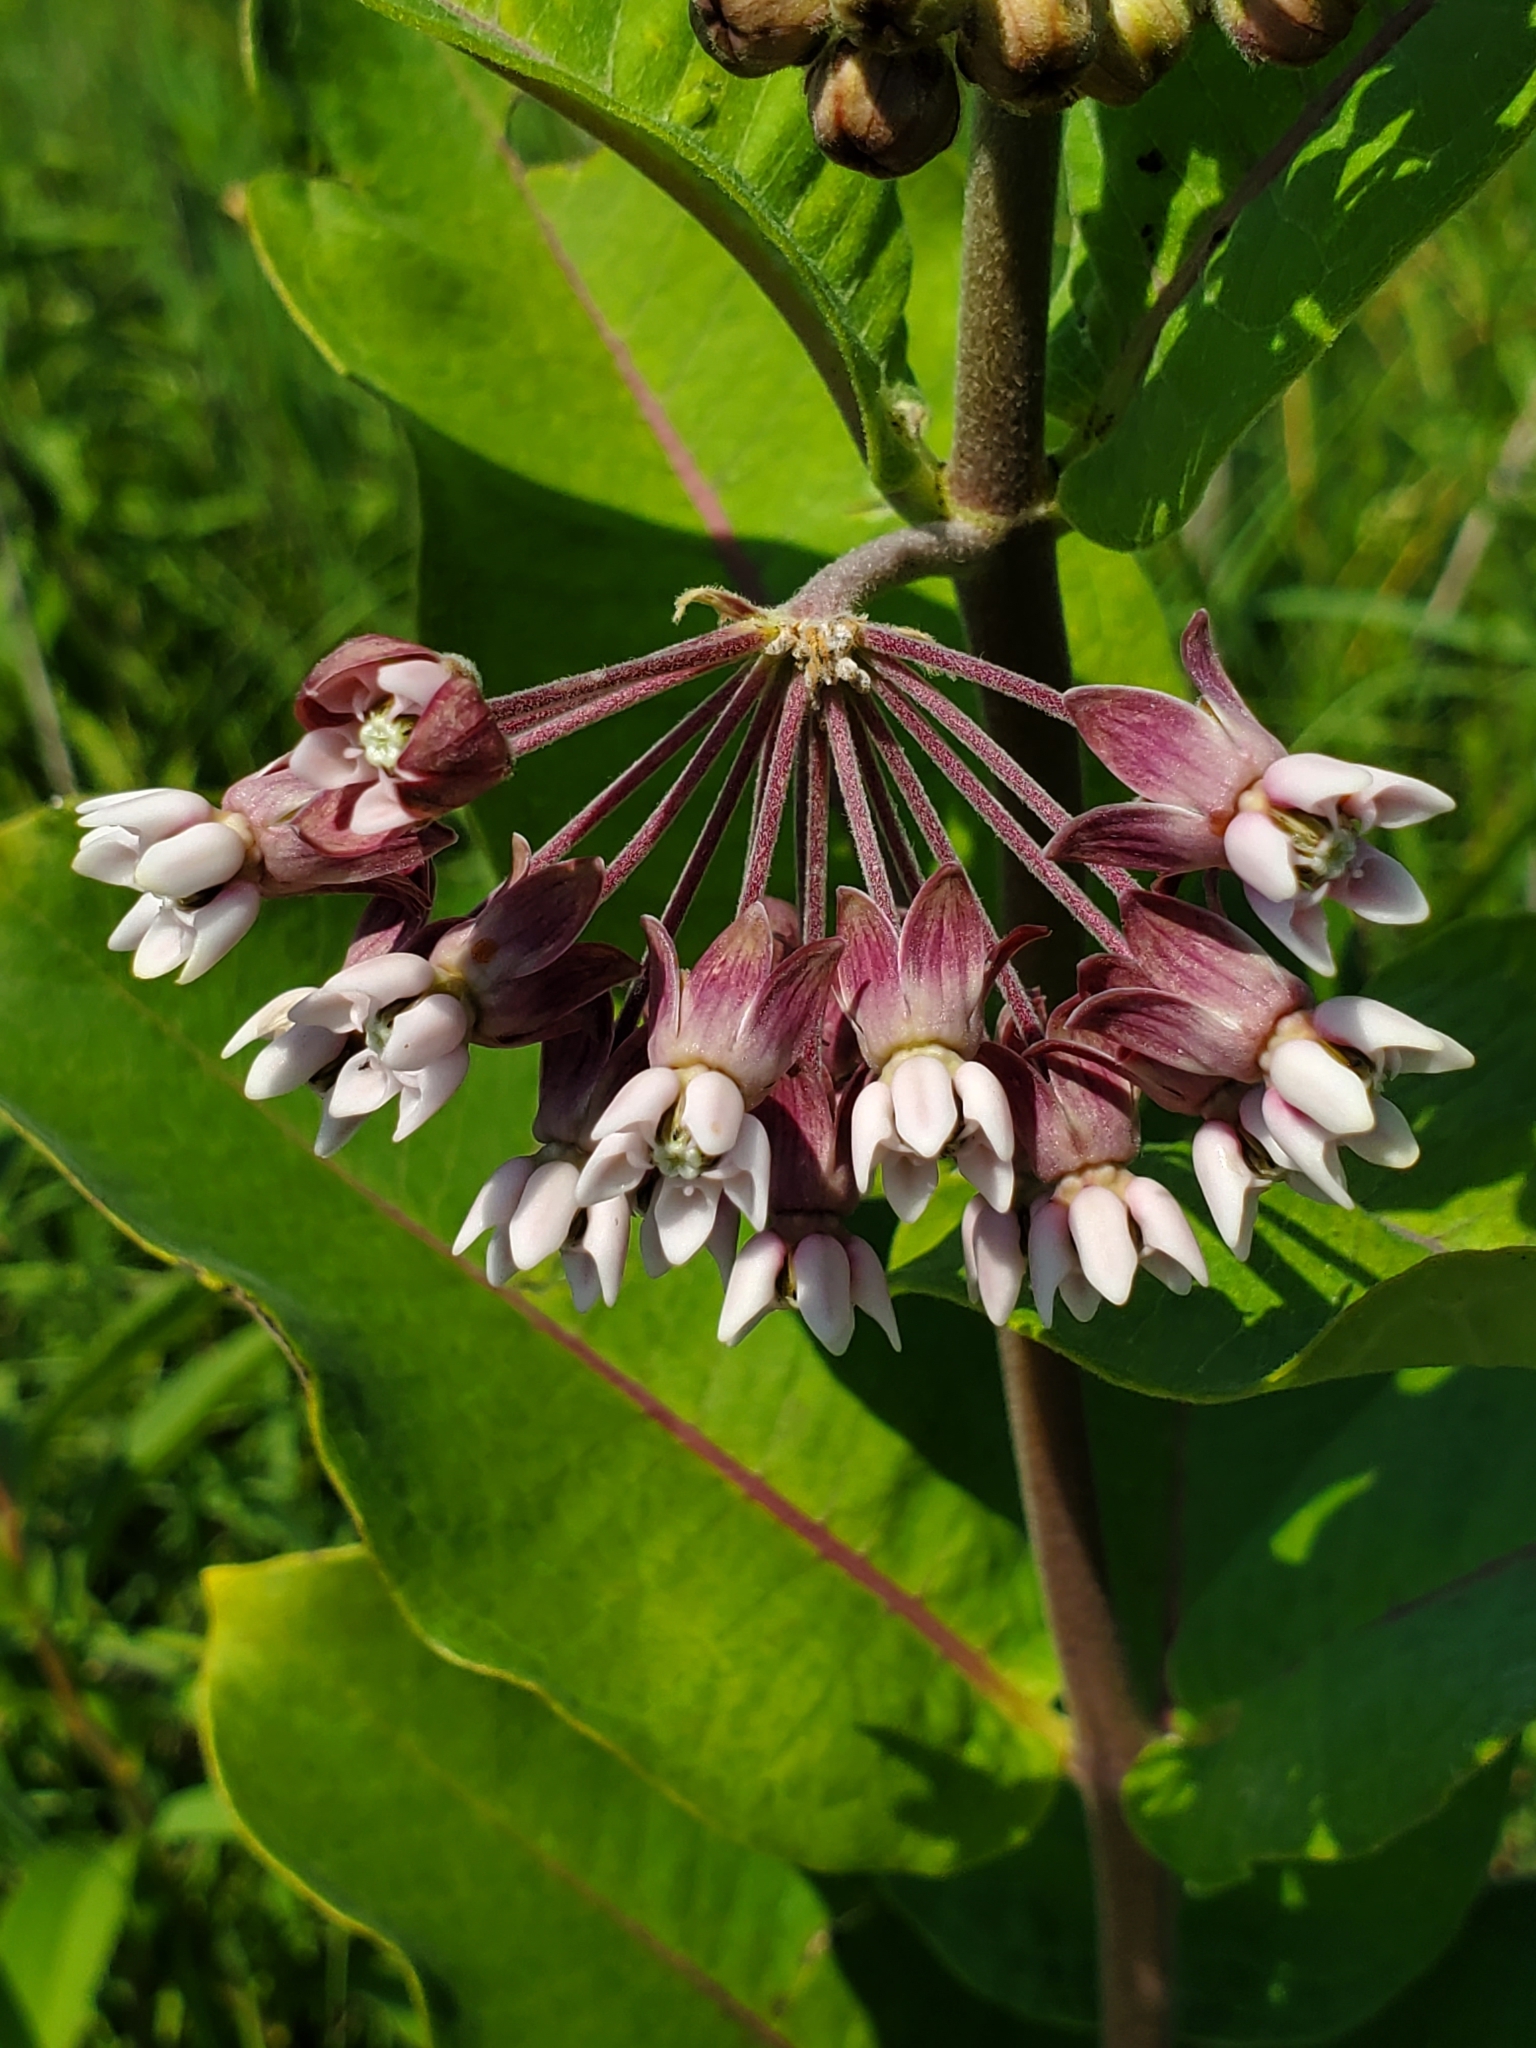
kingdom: Plantae
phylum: Tracheophyta
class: Magnoliopsida
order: Gentianales
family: Apocynaceae
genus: Asclepias
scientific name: Asclepias syriaca
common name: Common milkweed
